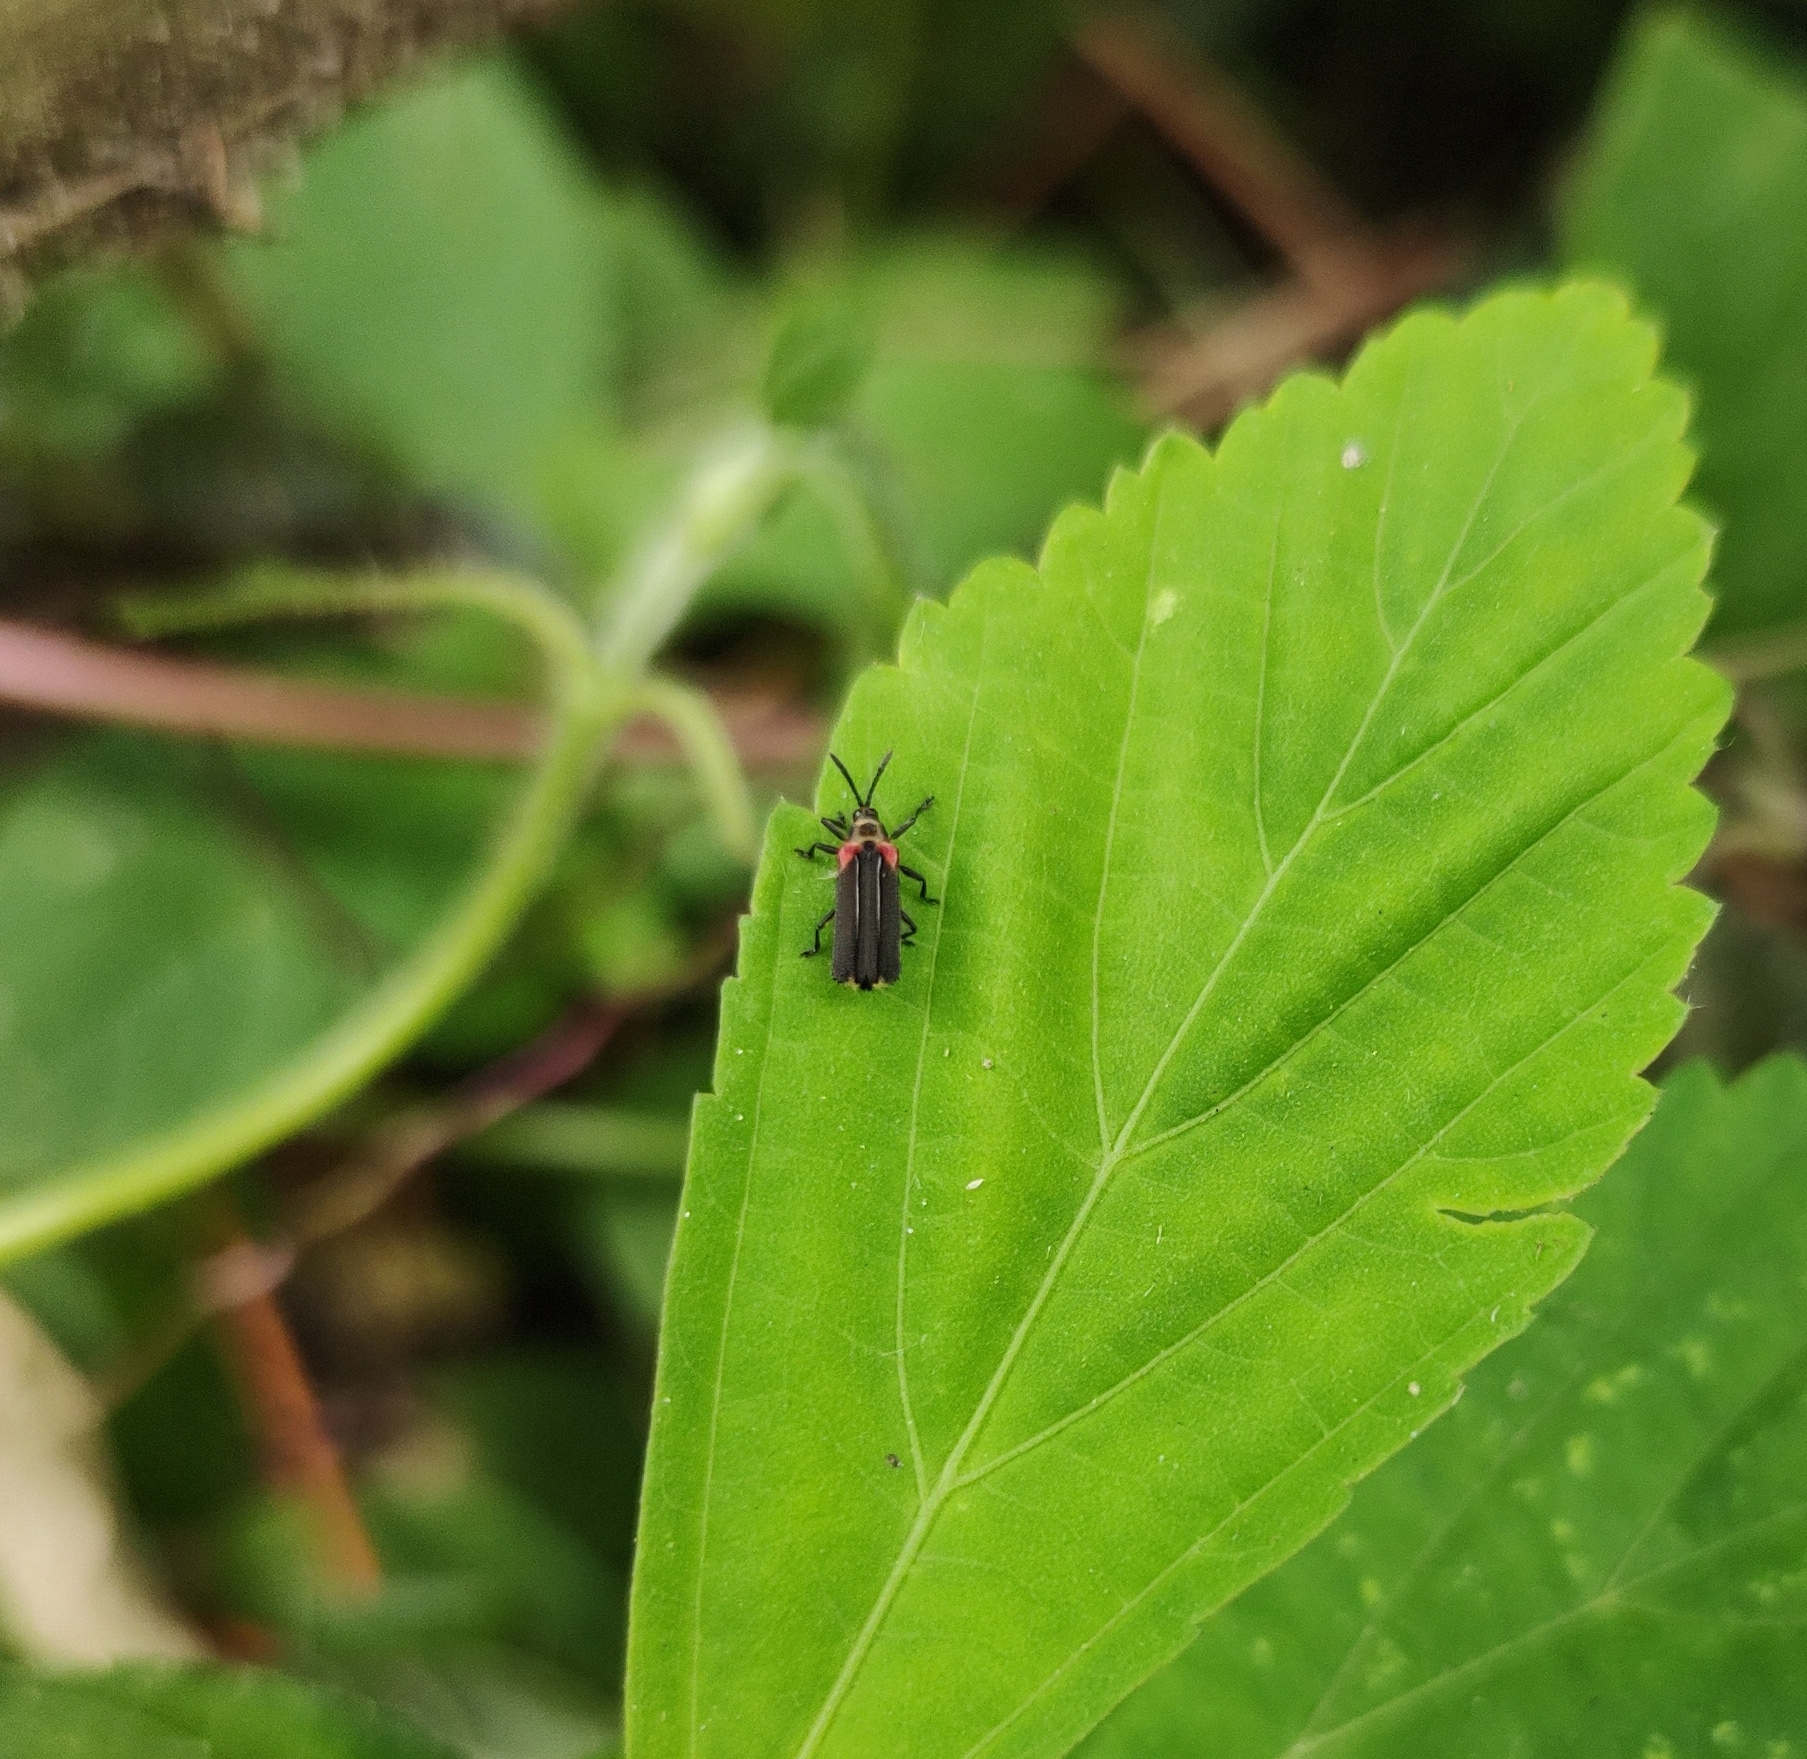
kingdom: Animalia
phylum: Arthropoda
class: Insecta
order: Coleoptera
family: Chrysomelidae
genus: Heterispa
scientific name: Heterispa vinula
